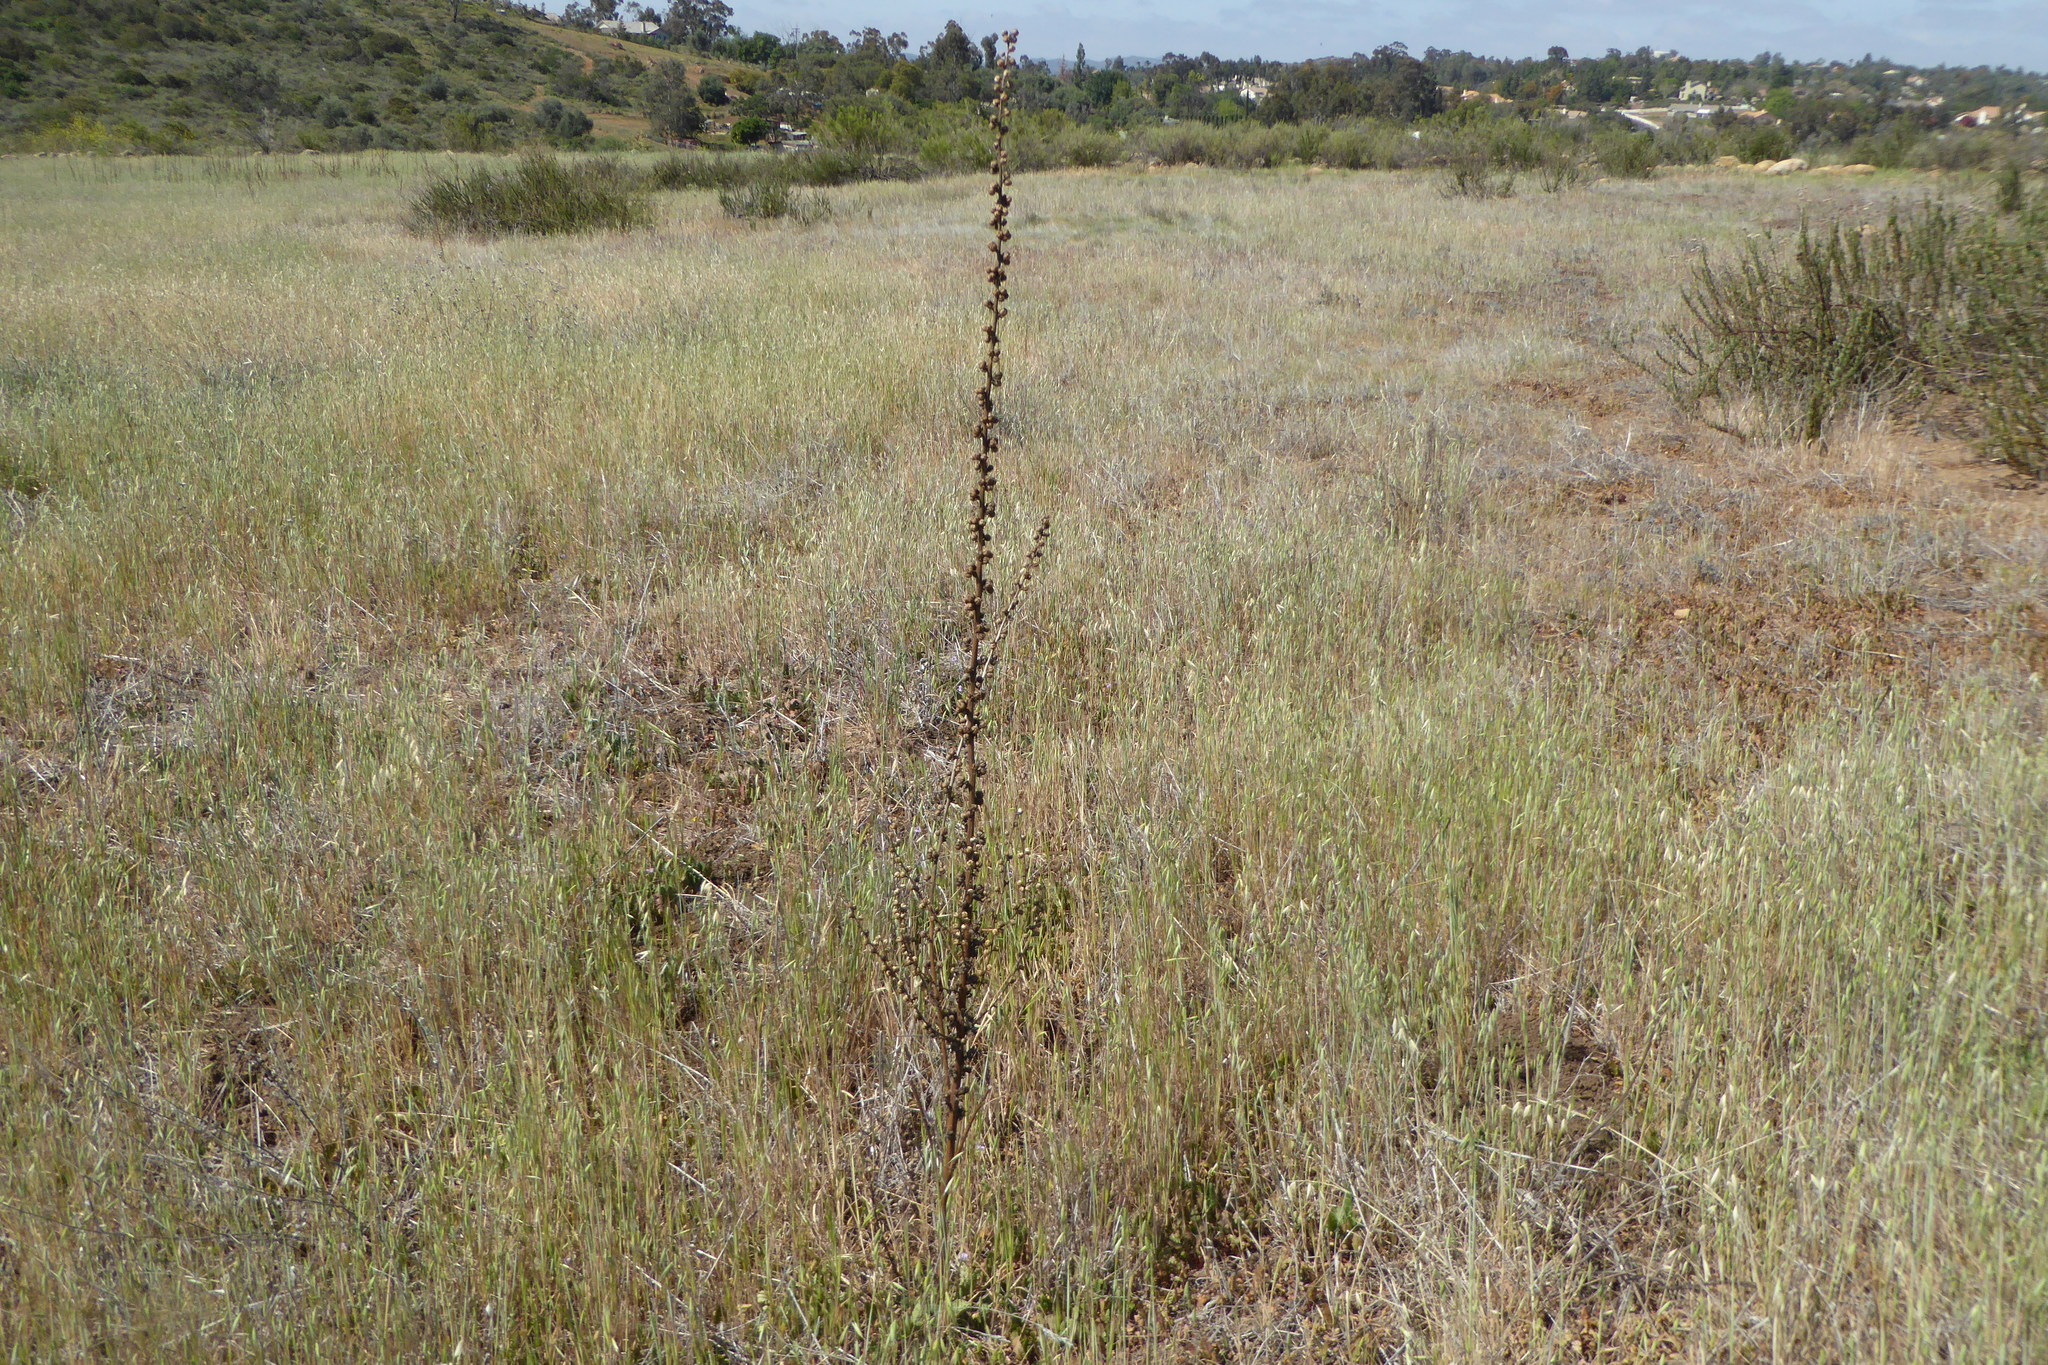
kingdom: Plantae
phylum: Tracheophyta
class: Magnoliopsida
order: Lamiales
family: Scrophulariaceae
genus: Verbascum
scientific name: Verbascum virgatum
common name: Twiggy mullein
